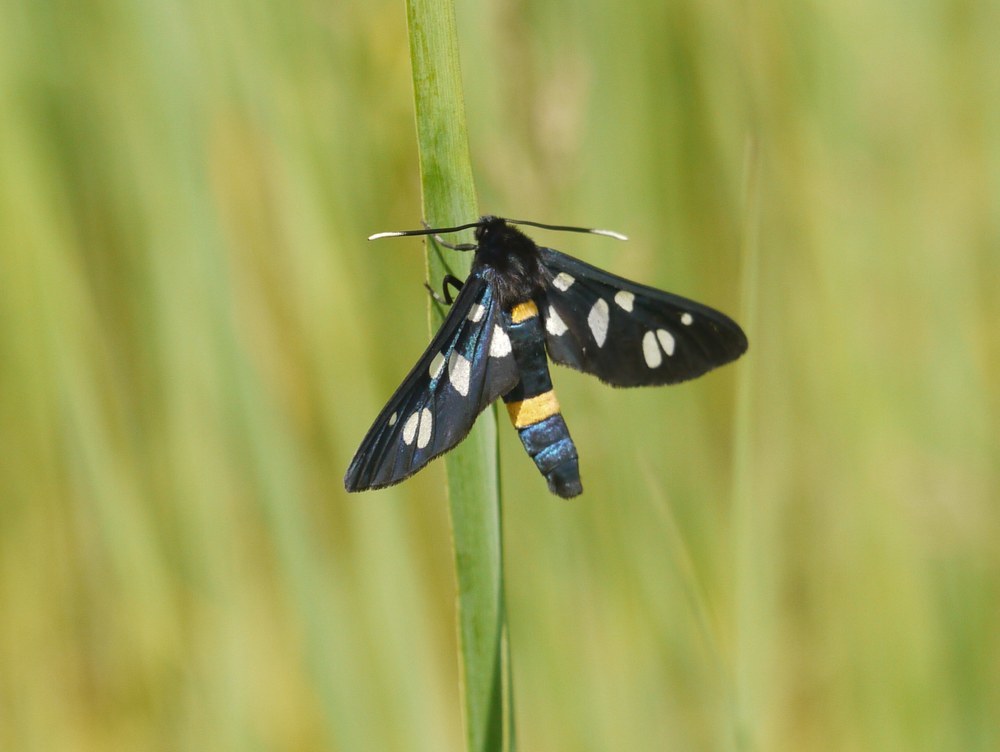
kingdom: Animalia
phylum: Arthropoda
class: Insecta
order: Lepidoptera
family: Erebidae
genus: Amata
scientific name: Amata marjana
